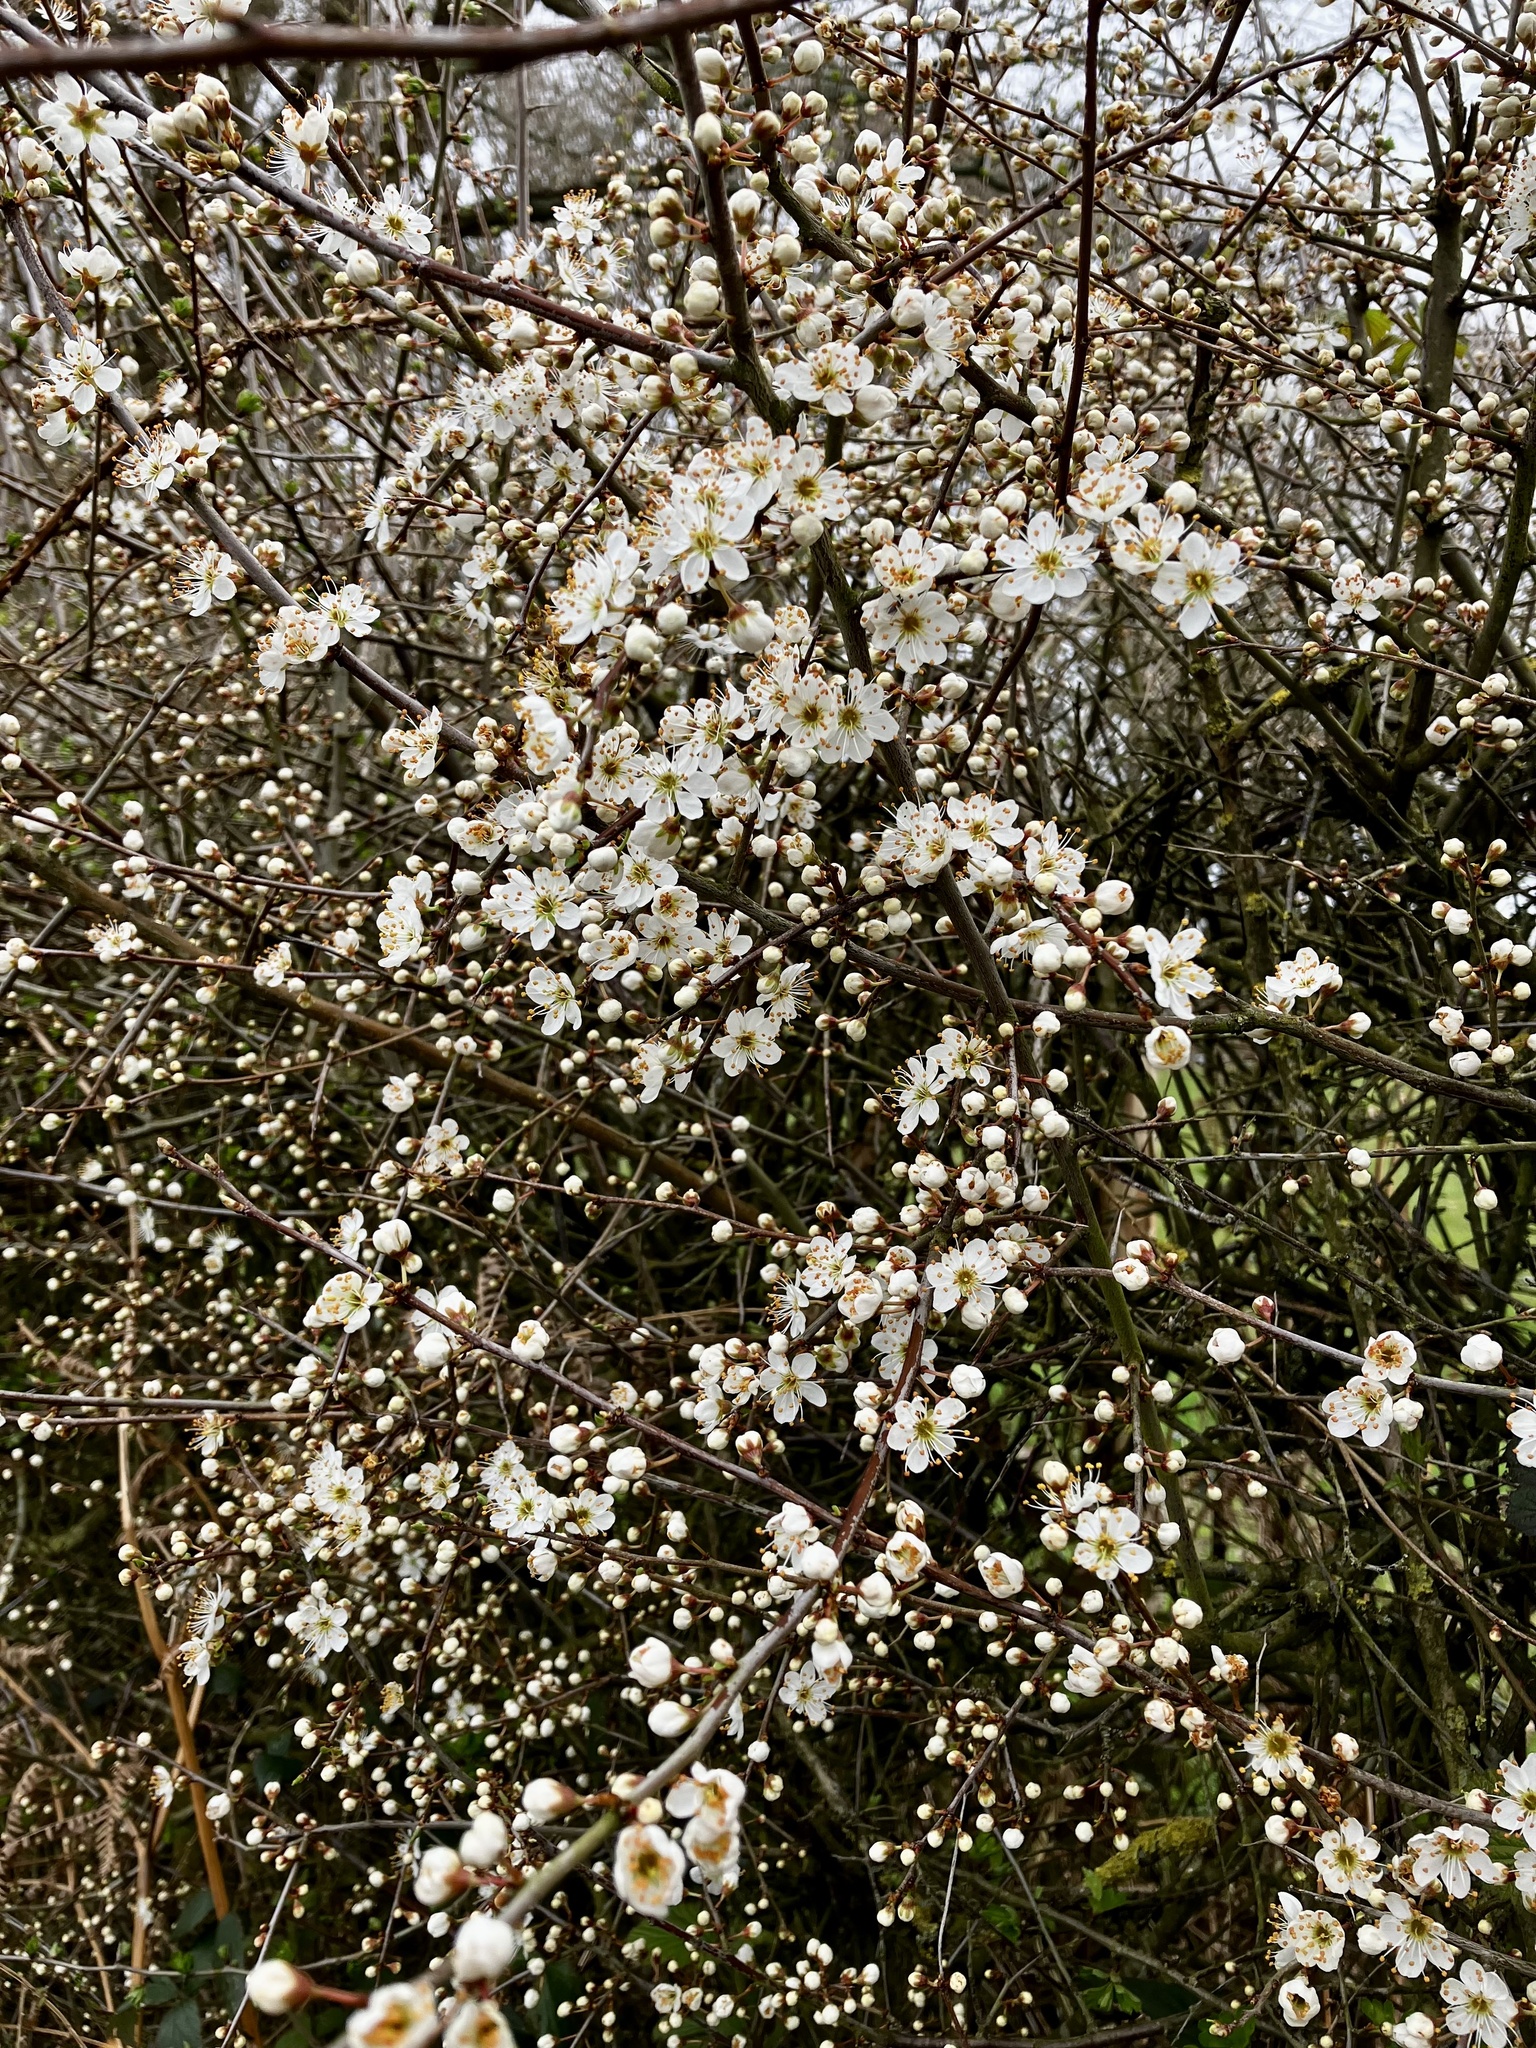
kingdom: Plantae
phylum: Tracheophyta
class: Magnoliopsida
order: Rosales
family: Rosaceae
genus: Prunus
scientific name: Prunus spinosa
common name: Blackthorn
